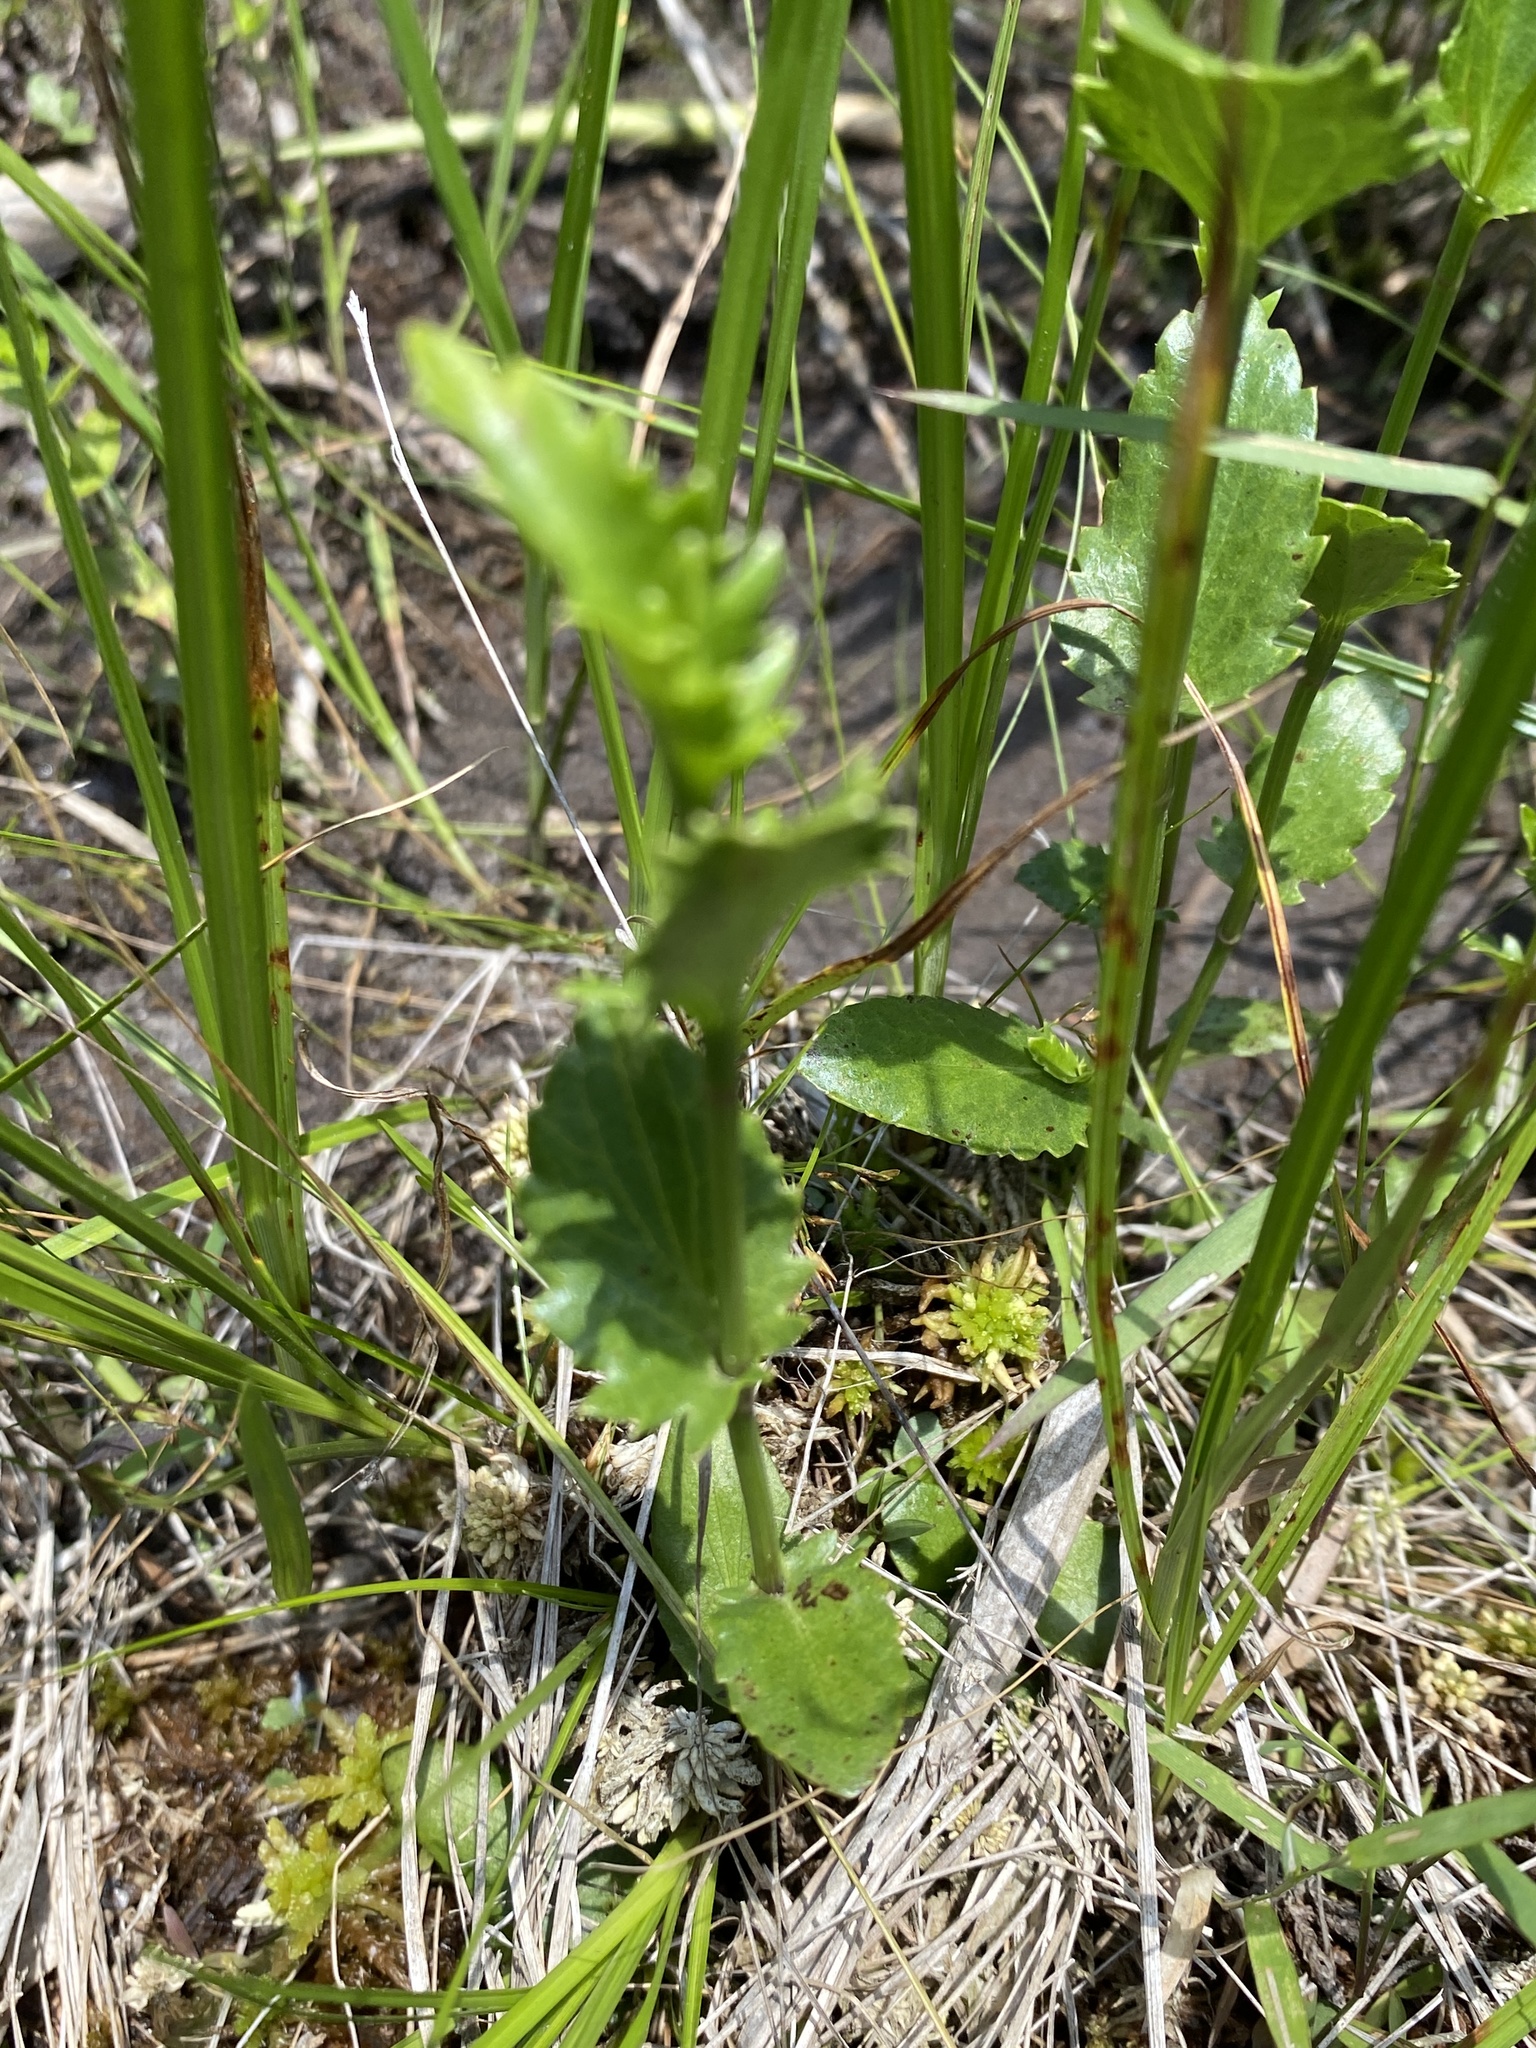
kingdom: Plantae
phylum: Tracheophyta
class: Magnoliopsida
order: Apiales
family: Apiaceae
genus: Eryngium
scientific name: Eryngium integrifolium
